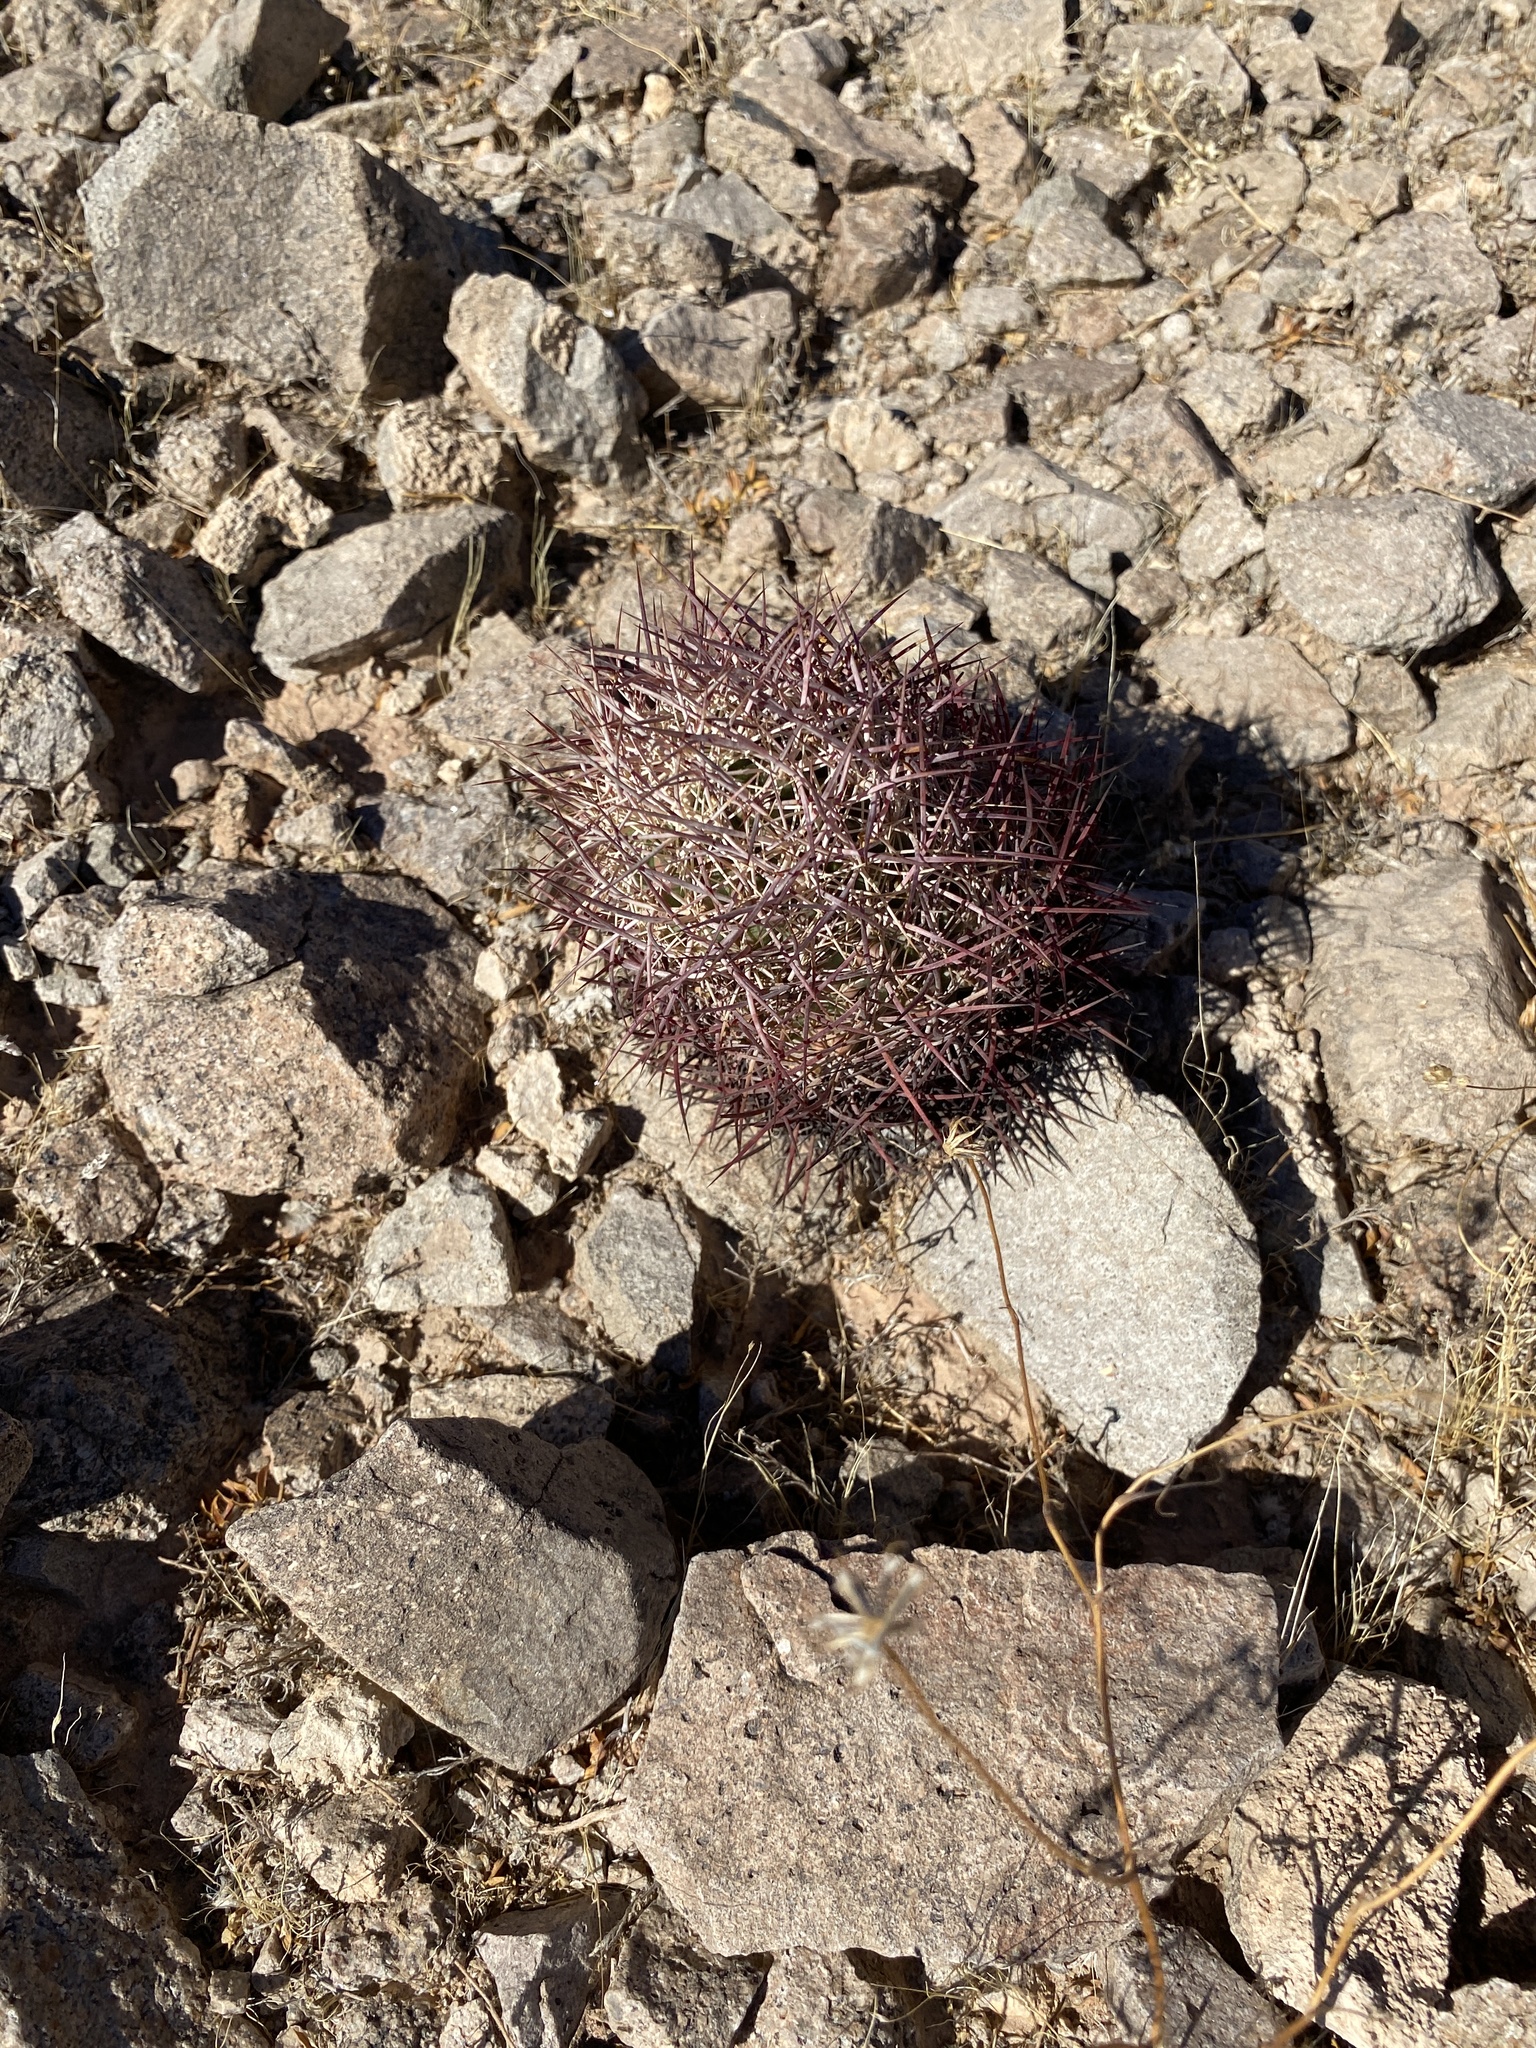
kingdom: Plantae
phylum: Tracheophyta
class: Magnoliopsida
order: Caryophyllales
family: Cactaceae
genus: Sclerocactus
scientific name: Sclerocactus johnsonii
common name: Eight-spine fishhook cactus
